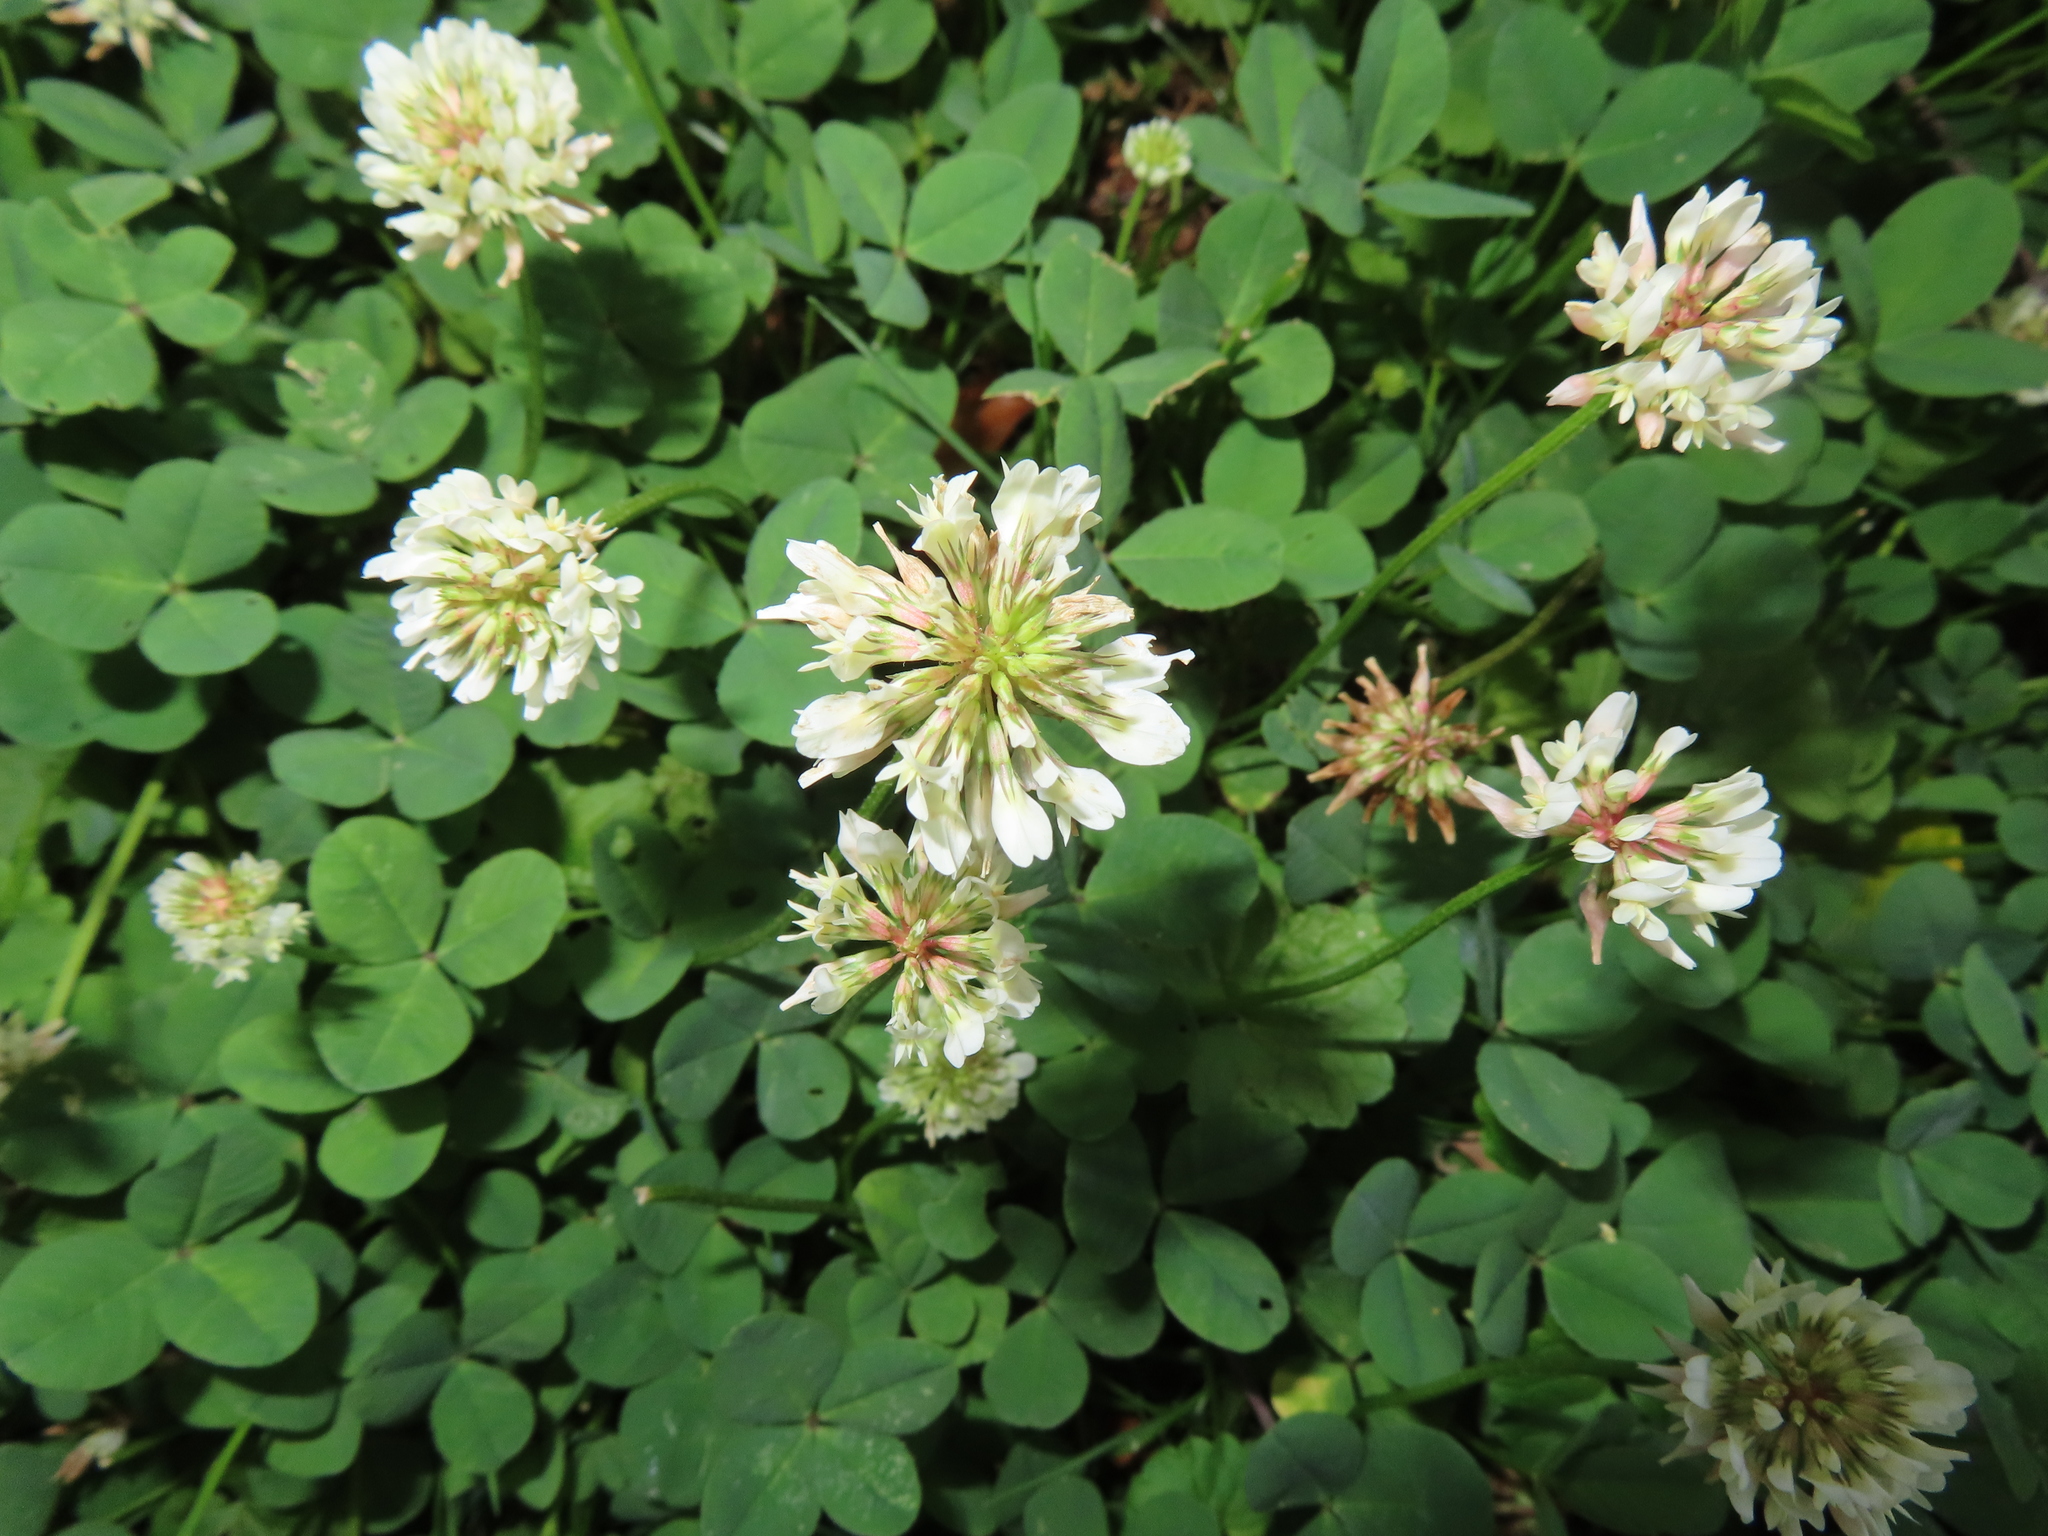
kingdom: Plantae
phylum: Tracheophyta
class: Magnoliopsida
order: Fabales
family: Fabaceae
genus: Trifolium
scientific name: Trifolium repens
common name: White clover
